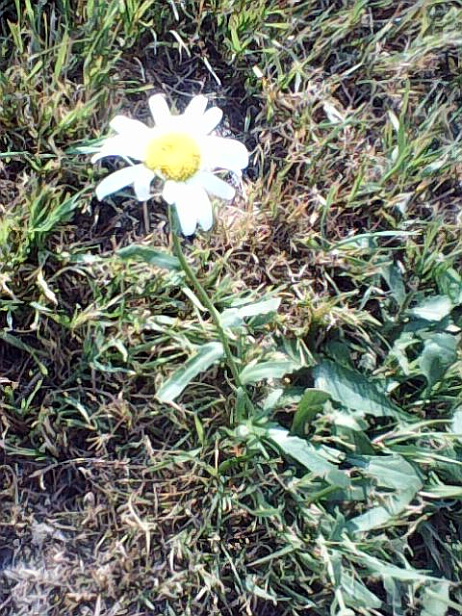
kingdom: Plantae
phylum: Tracheophyta
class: Magnoliopsida
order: Asterales
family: Asteraceae
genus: Leucanthemum
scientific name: Leucanthemum vulgare
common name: Oxeye daisy
